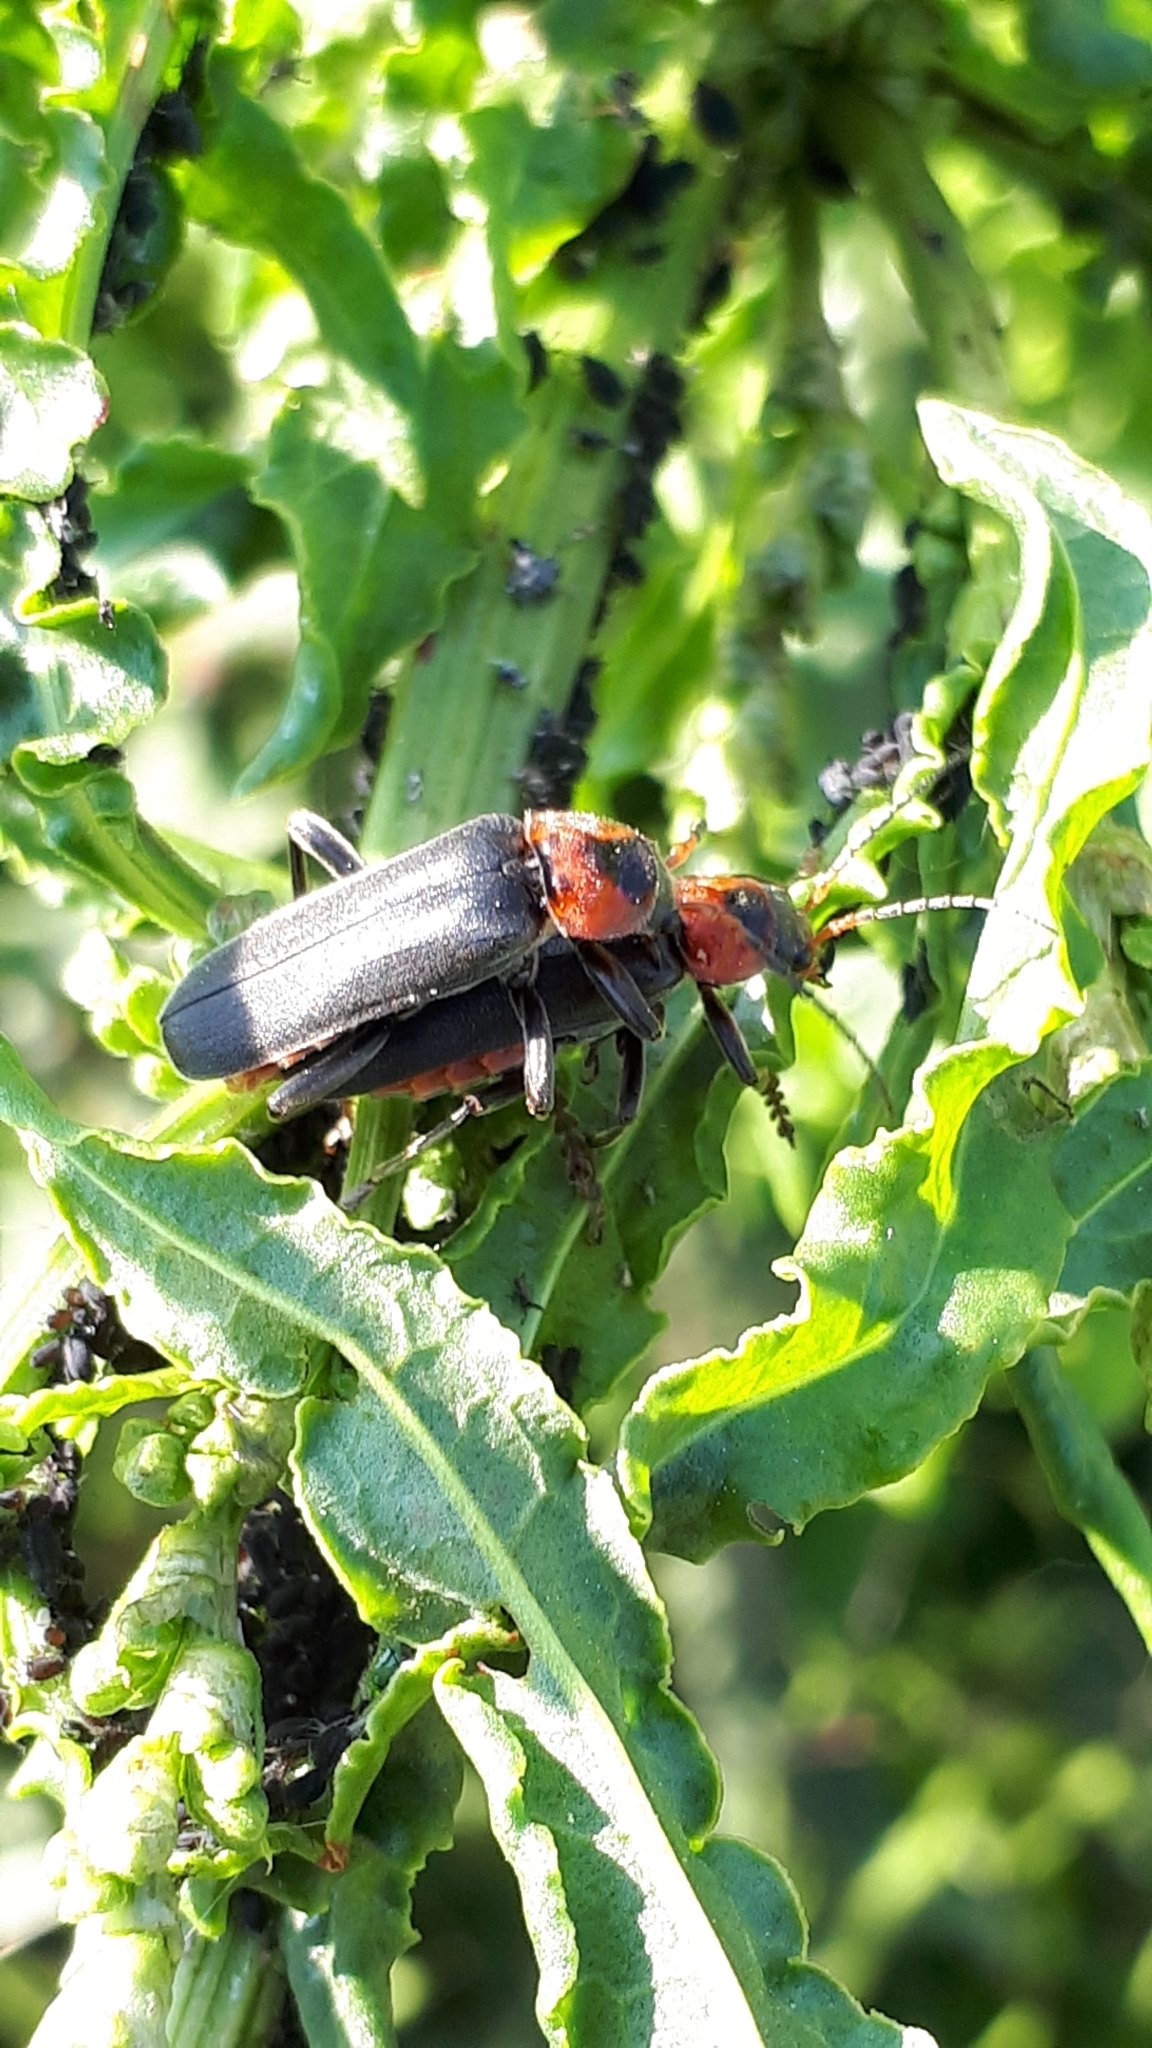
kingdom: Animalia
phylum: Arthropoda
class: Insecta
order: Coleoptera
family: Cantharidae
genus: Cantharis
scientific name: Cantharis fusca
